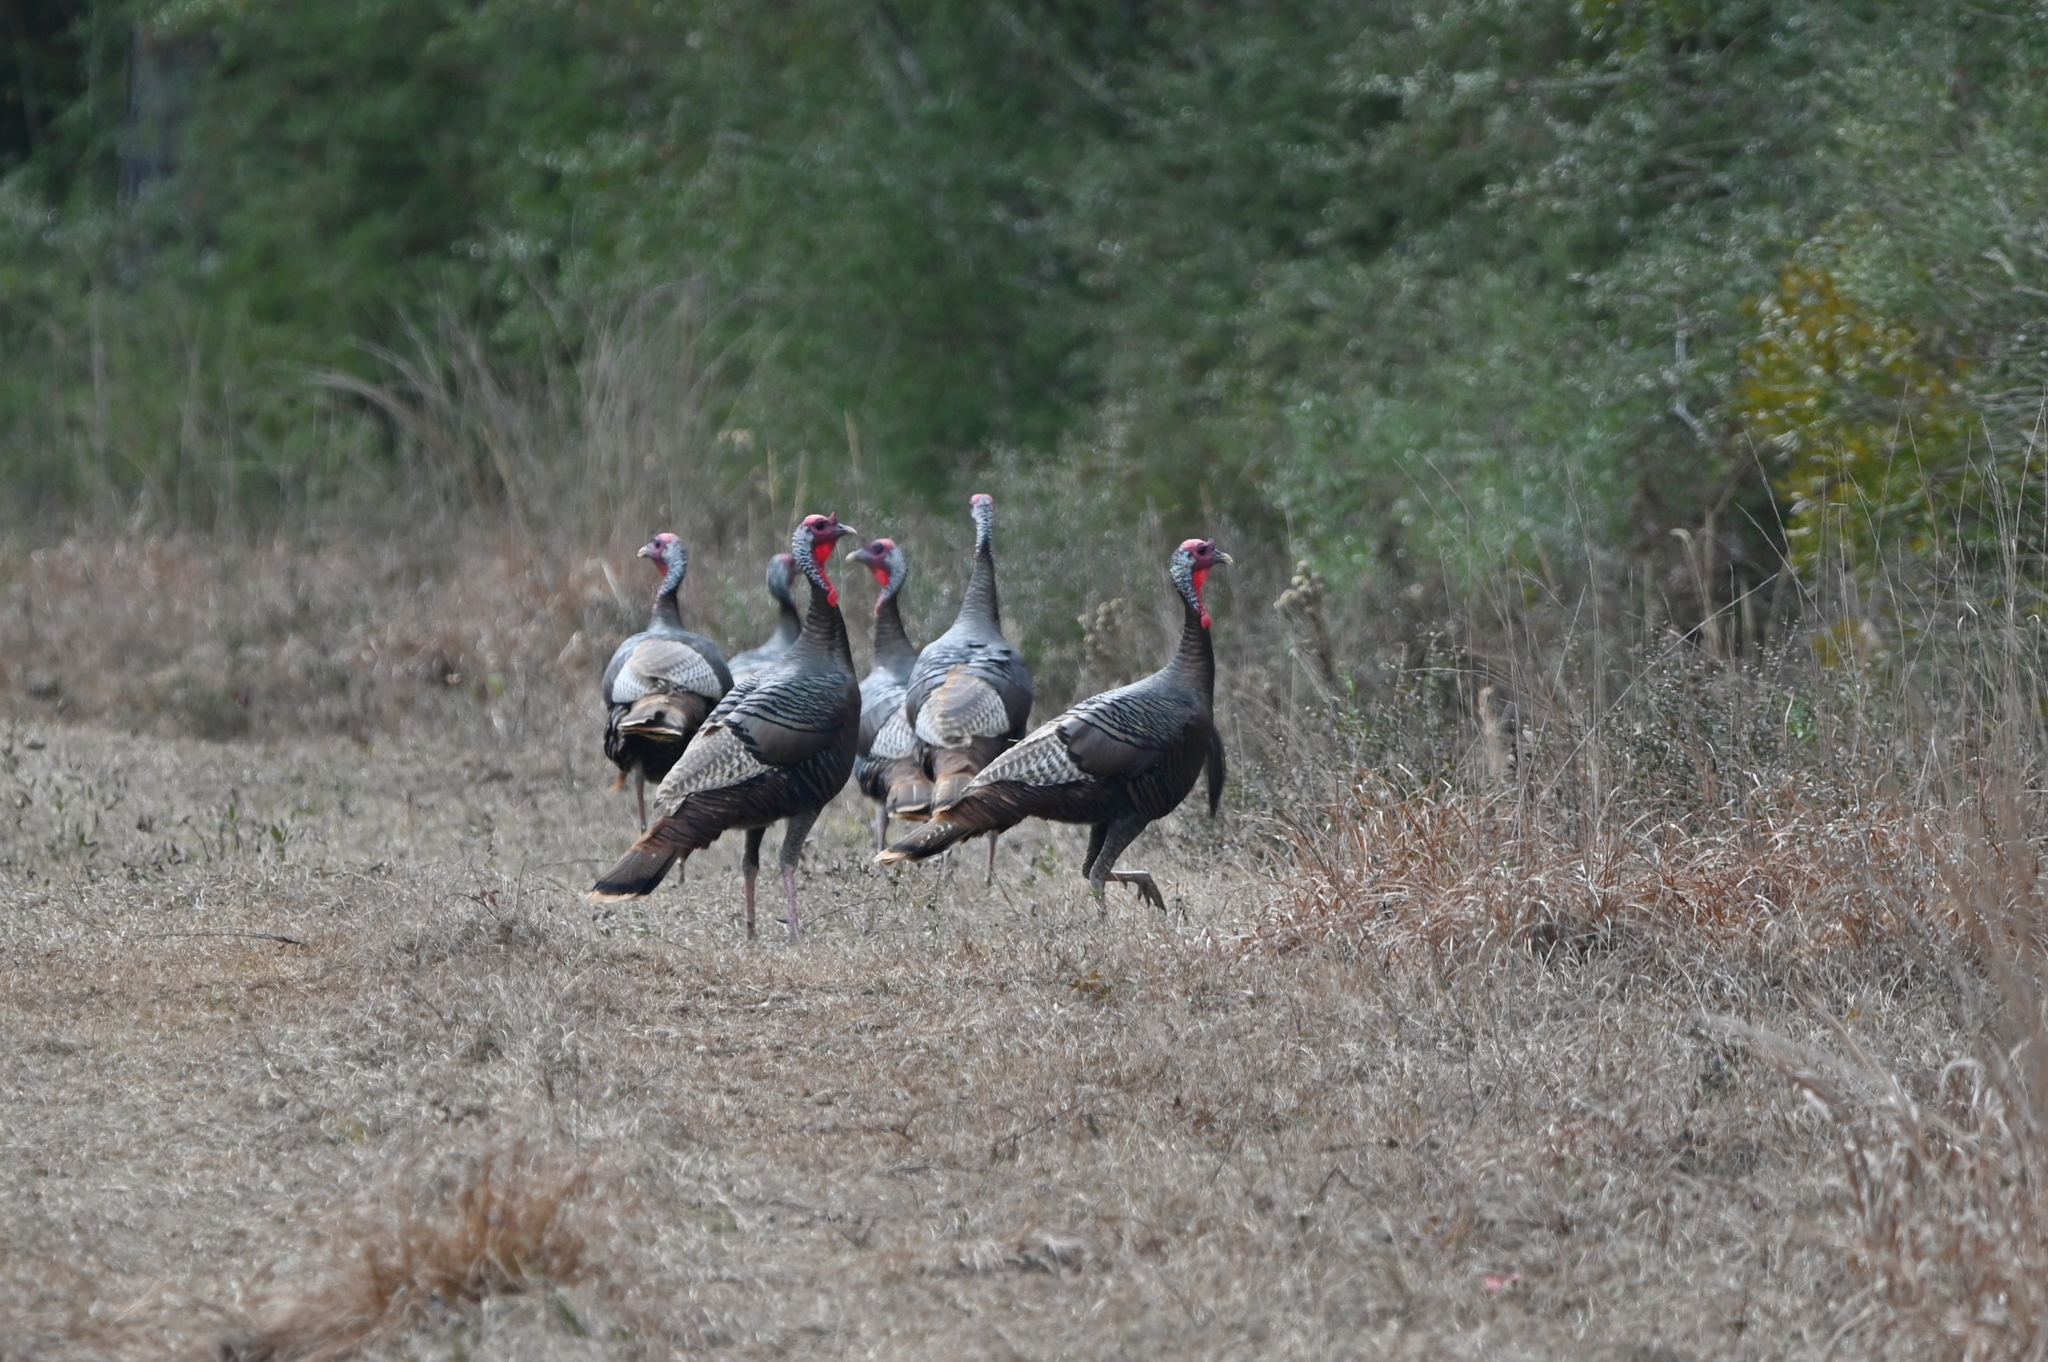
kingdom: Animalia
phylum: Chordata
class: Aves
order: Galliformes
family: Phasianidae
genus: Meleagris
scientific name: Meleagris gallopavo
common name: Wild turkey
